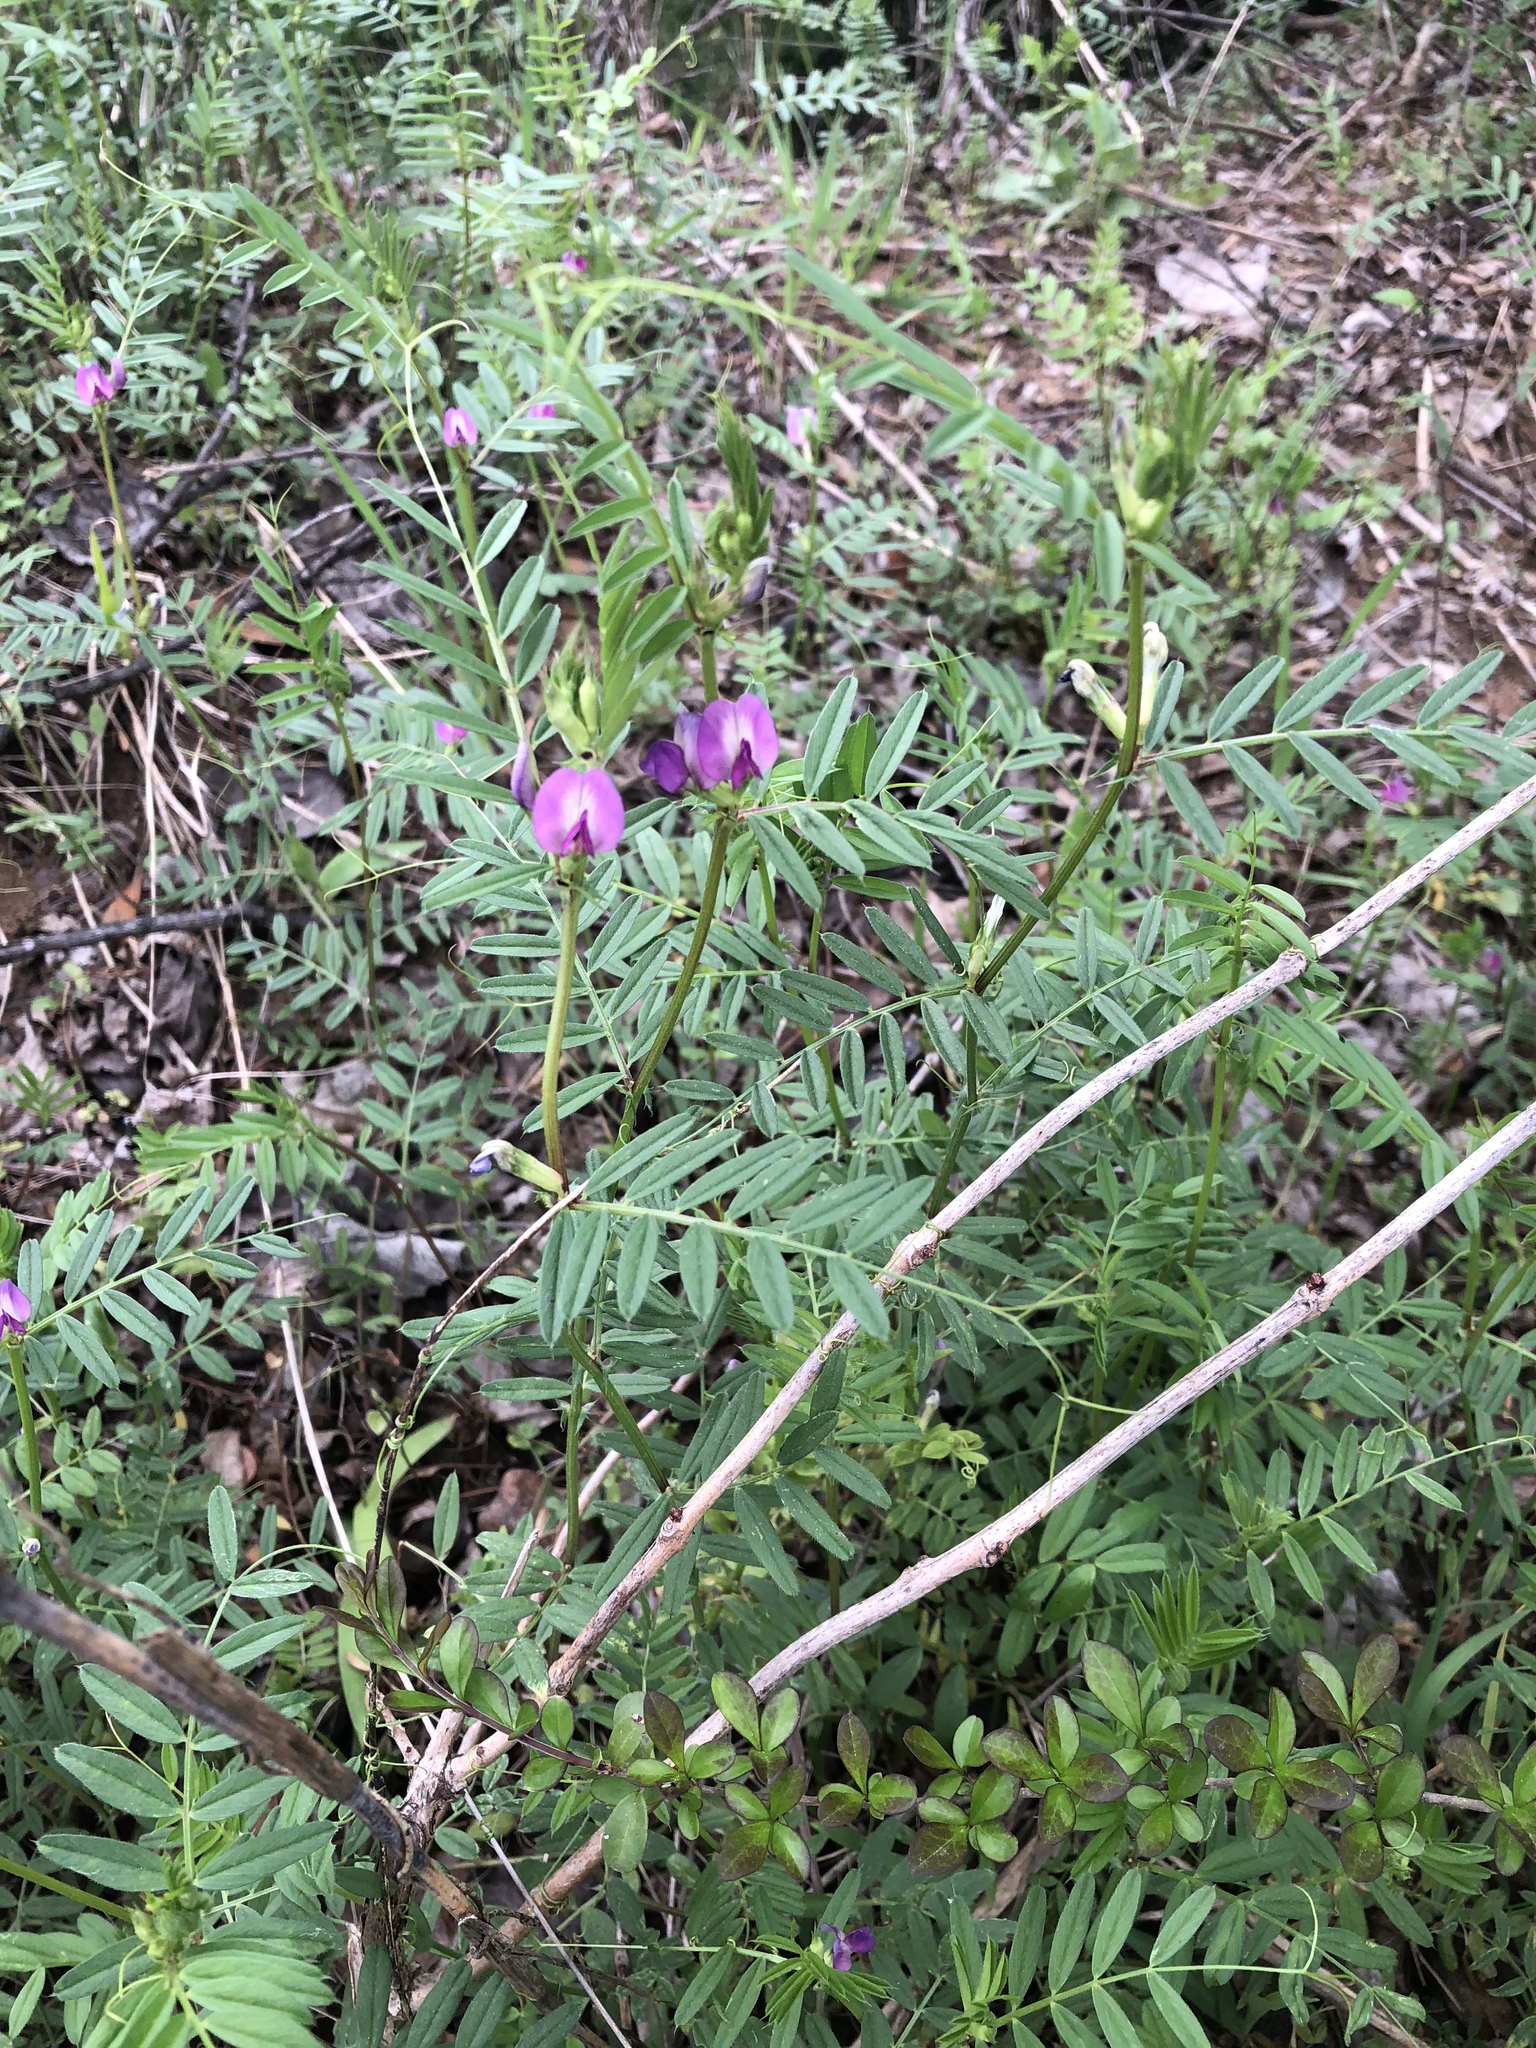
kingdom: Plantae
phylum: Tracheophyta
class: Magnoliopsida
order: Fabales
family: Fabaceae
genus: Vicia
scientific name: Vicia sativa
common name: Garden vetch
